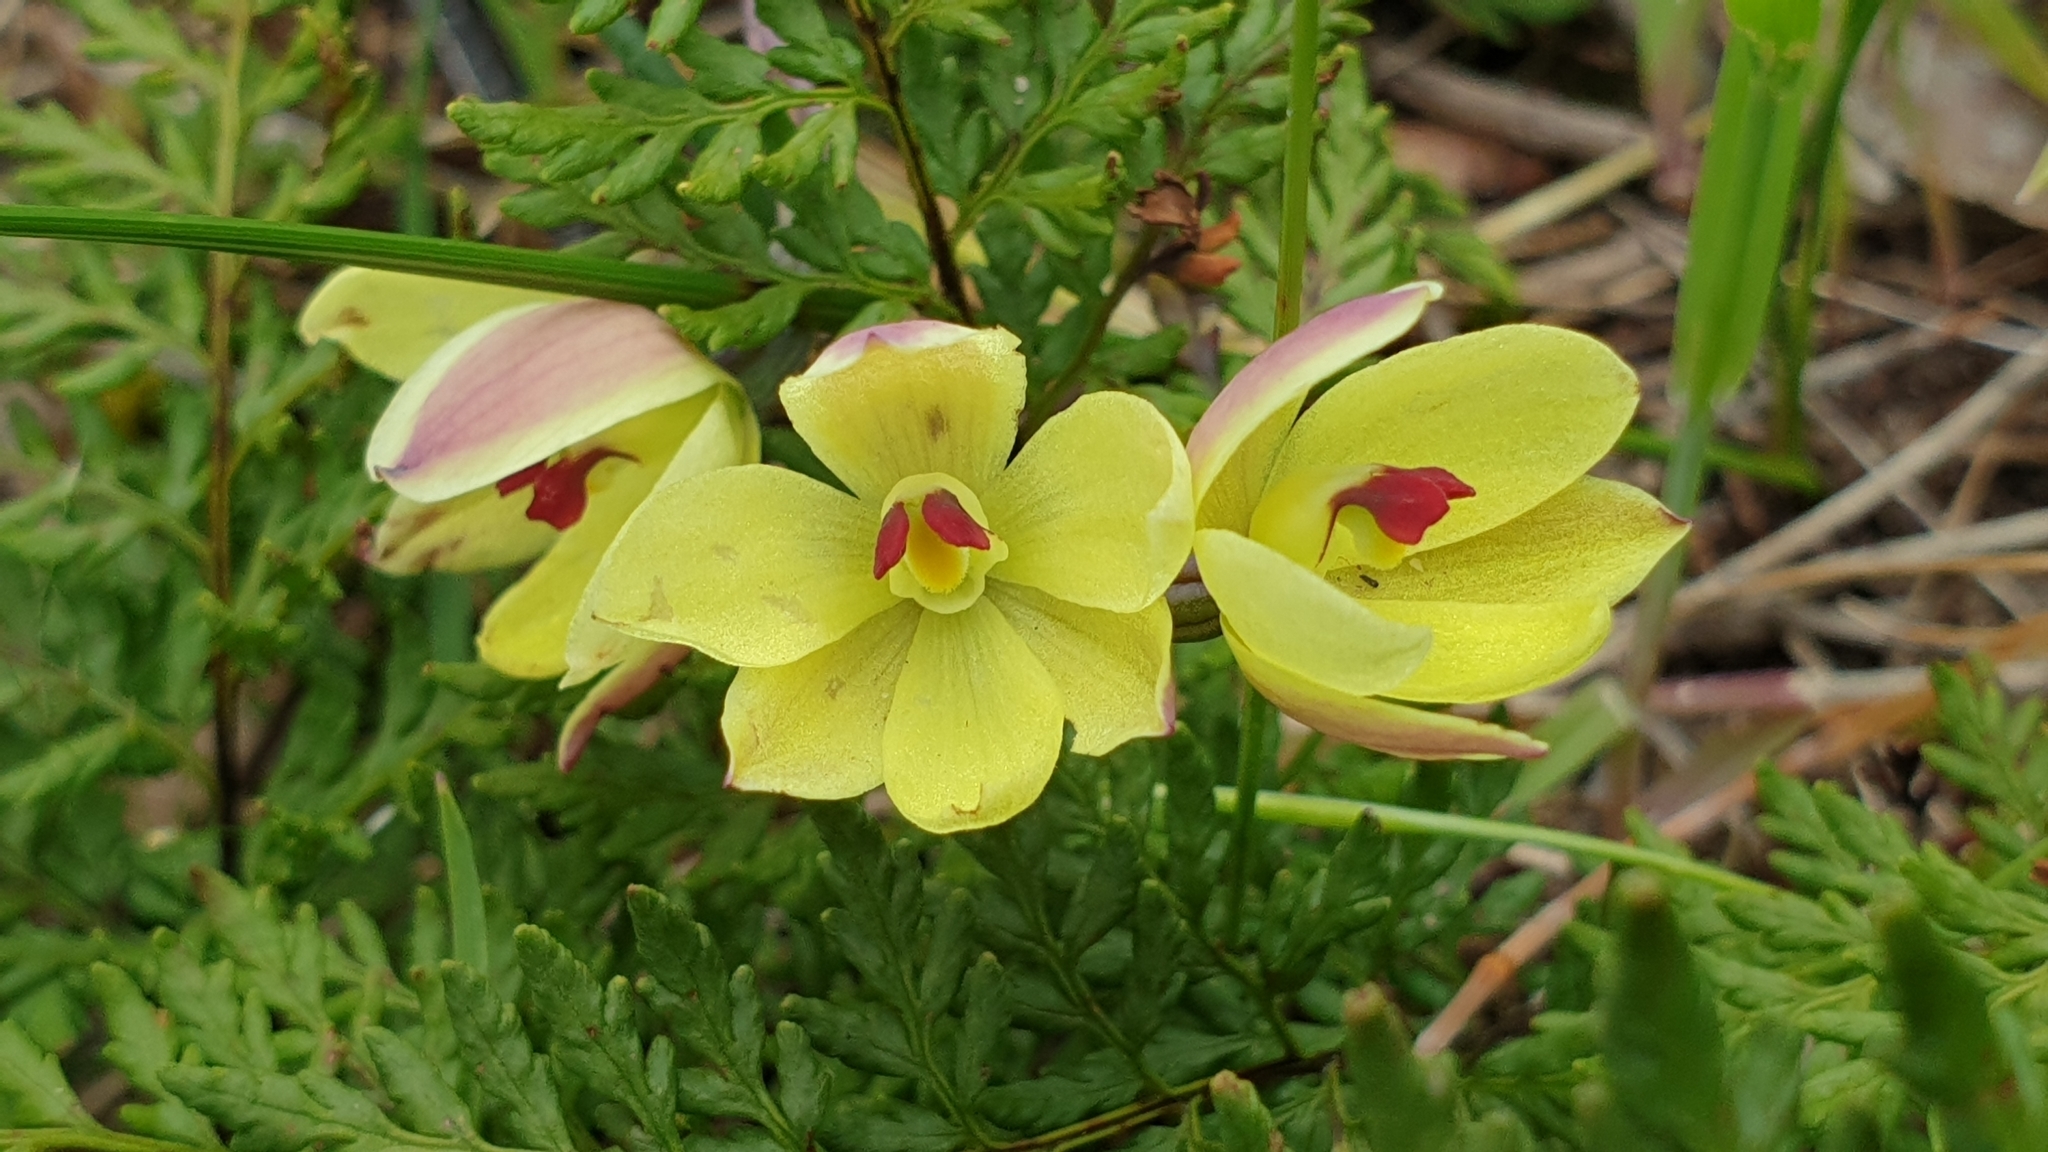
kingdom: Plantae
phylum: Tracheophyta
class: Liliopsida
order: Asparagales
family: Orchidaceae
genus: Thelymitra
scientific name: Thelymitra antennifera
